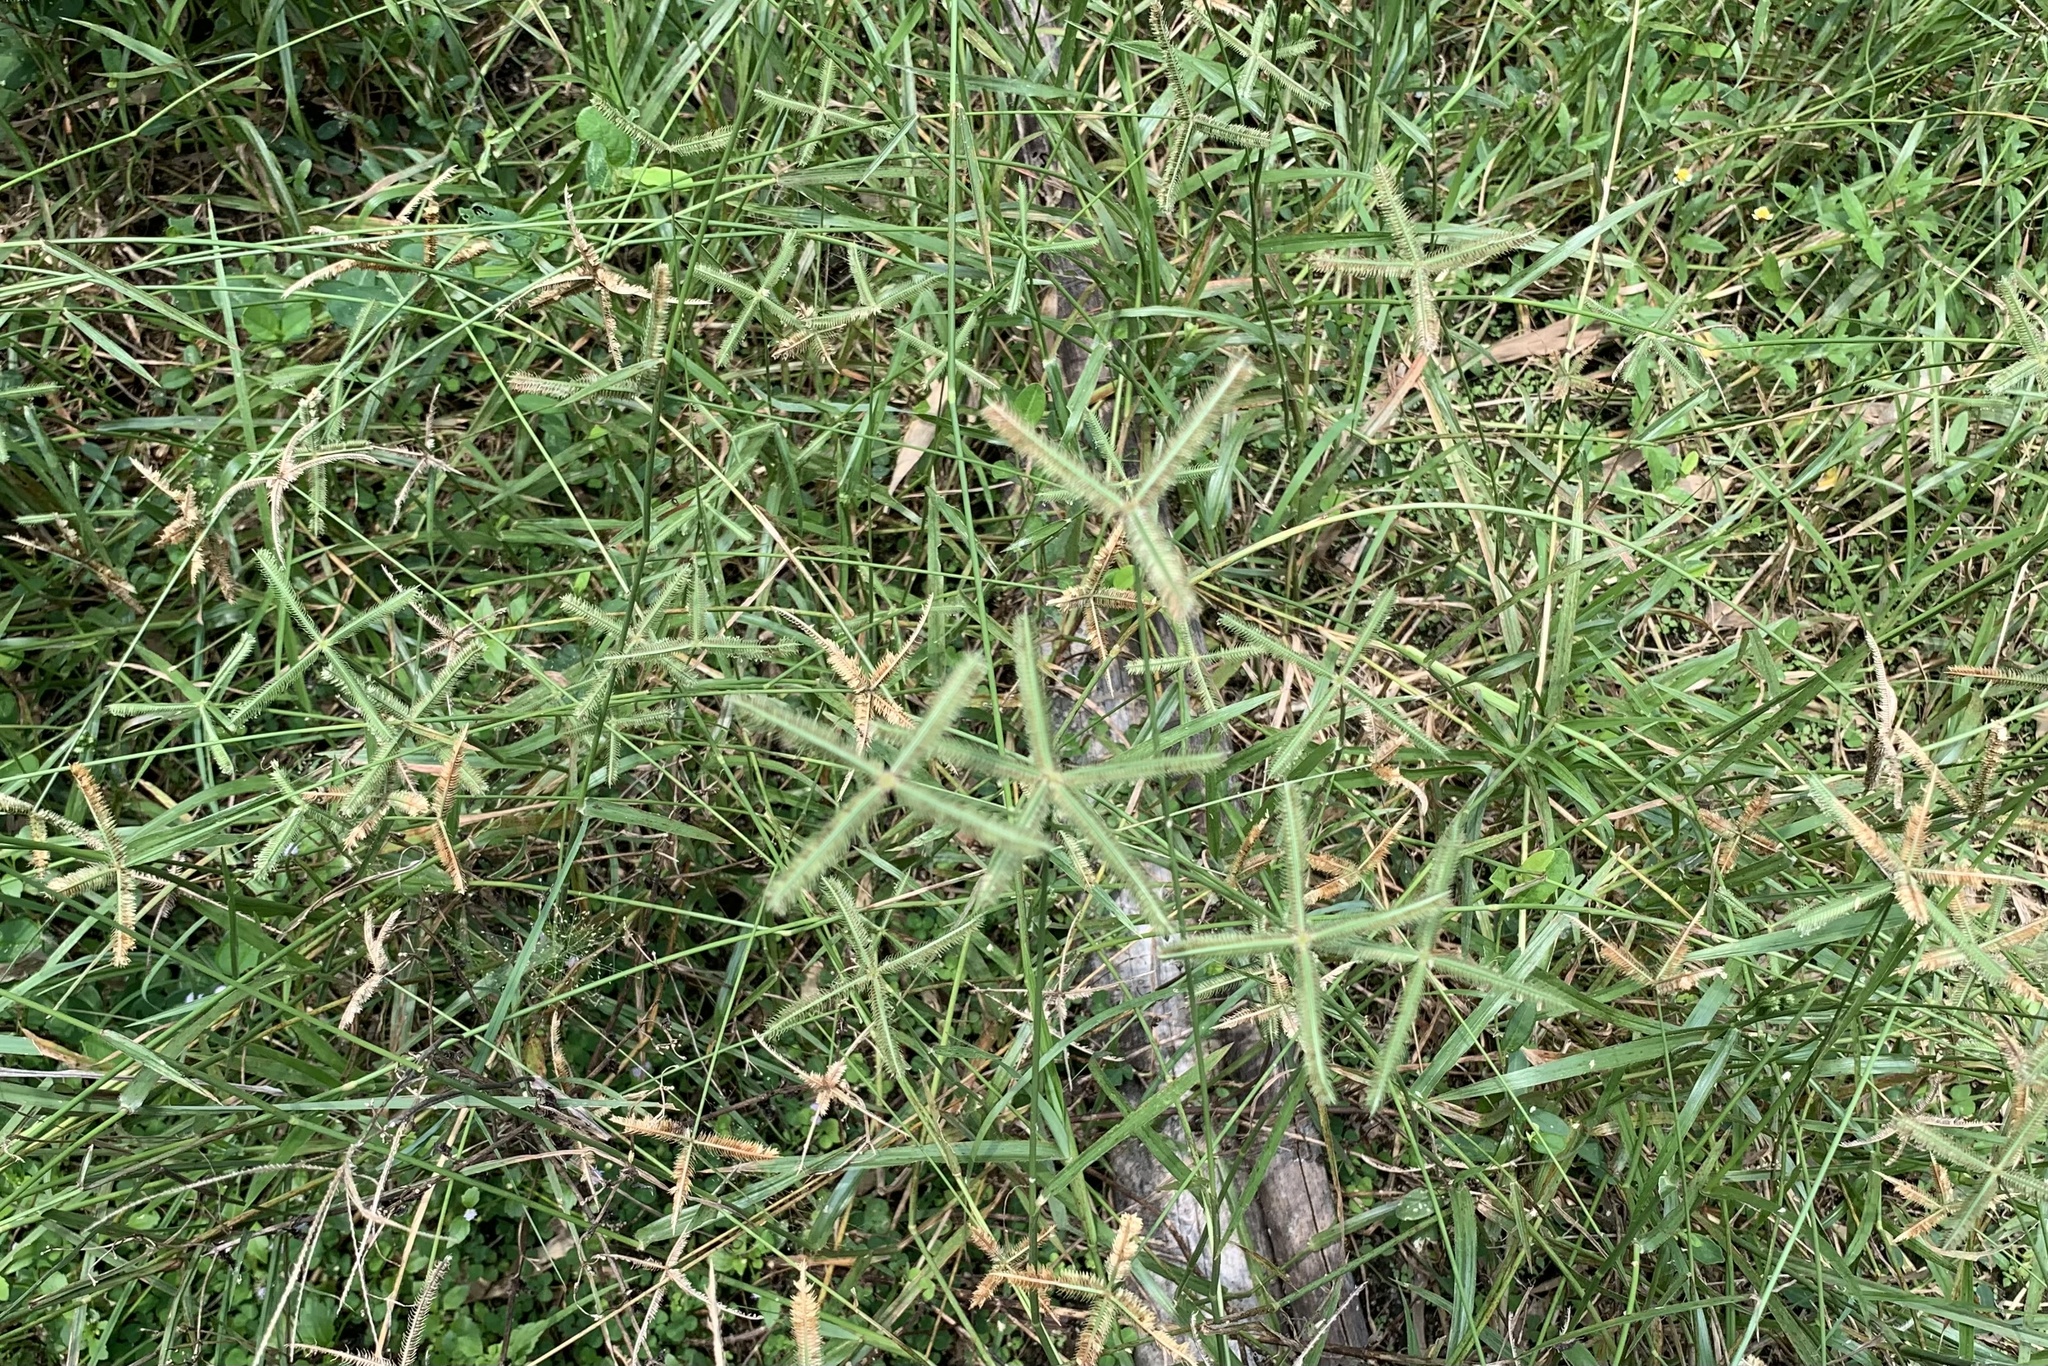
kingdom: Plantae
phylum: Tracheophyta
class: Liliopsida
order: Poales
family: Poaceae
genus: Dactyloctenium
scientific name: Dactyloctenium aegyptium
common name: Egyptian grass
